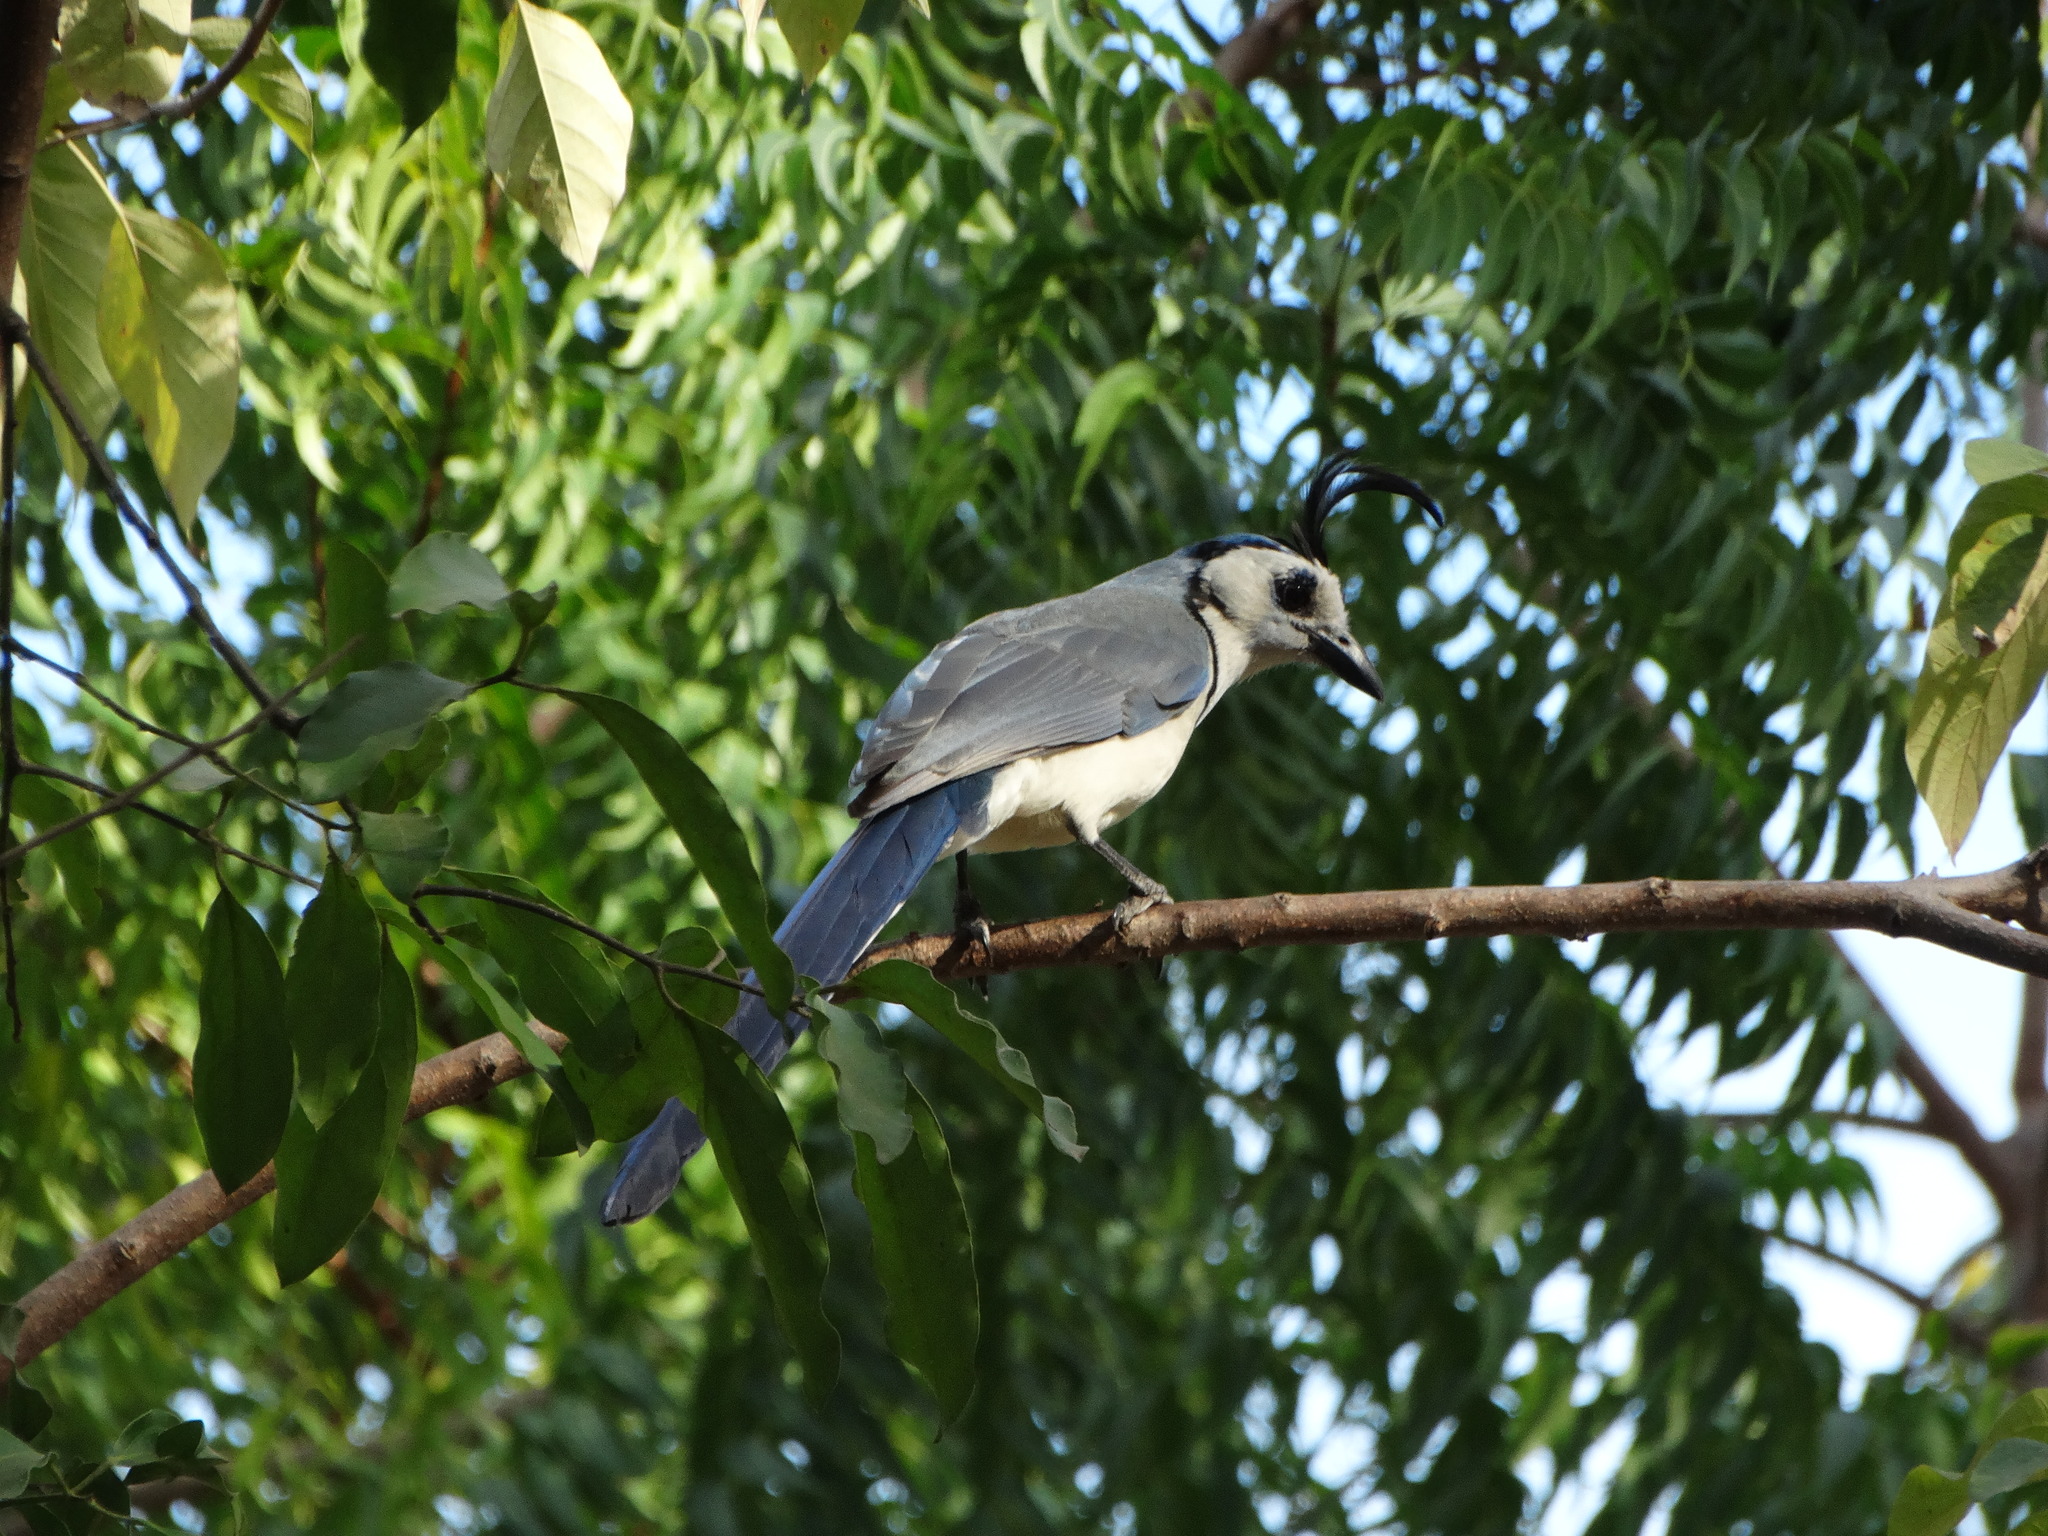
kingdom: Animalia
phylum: Chordata
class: Aves
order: Passeriformes
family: Corvidae
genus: Calocitta
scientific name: Calocitta formosa
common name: White-throated magpie-jay
